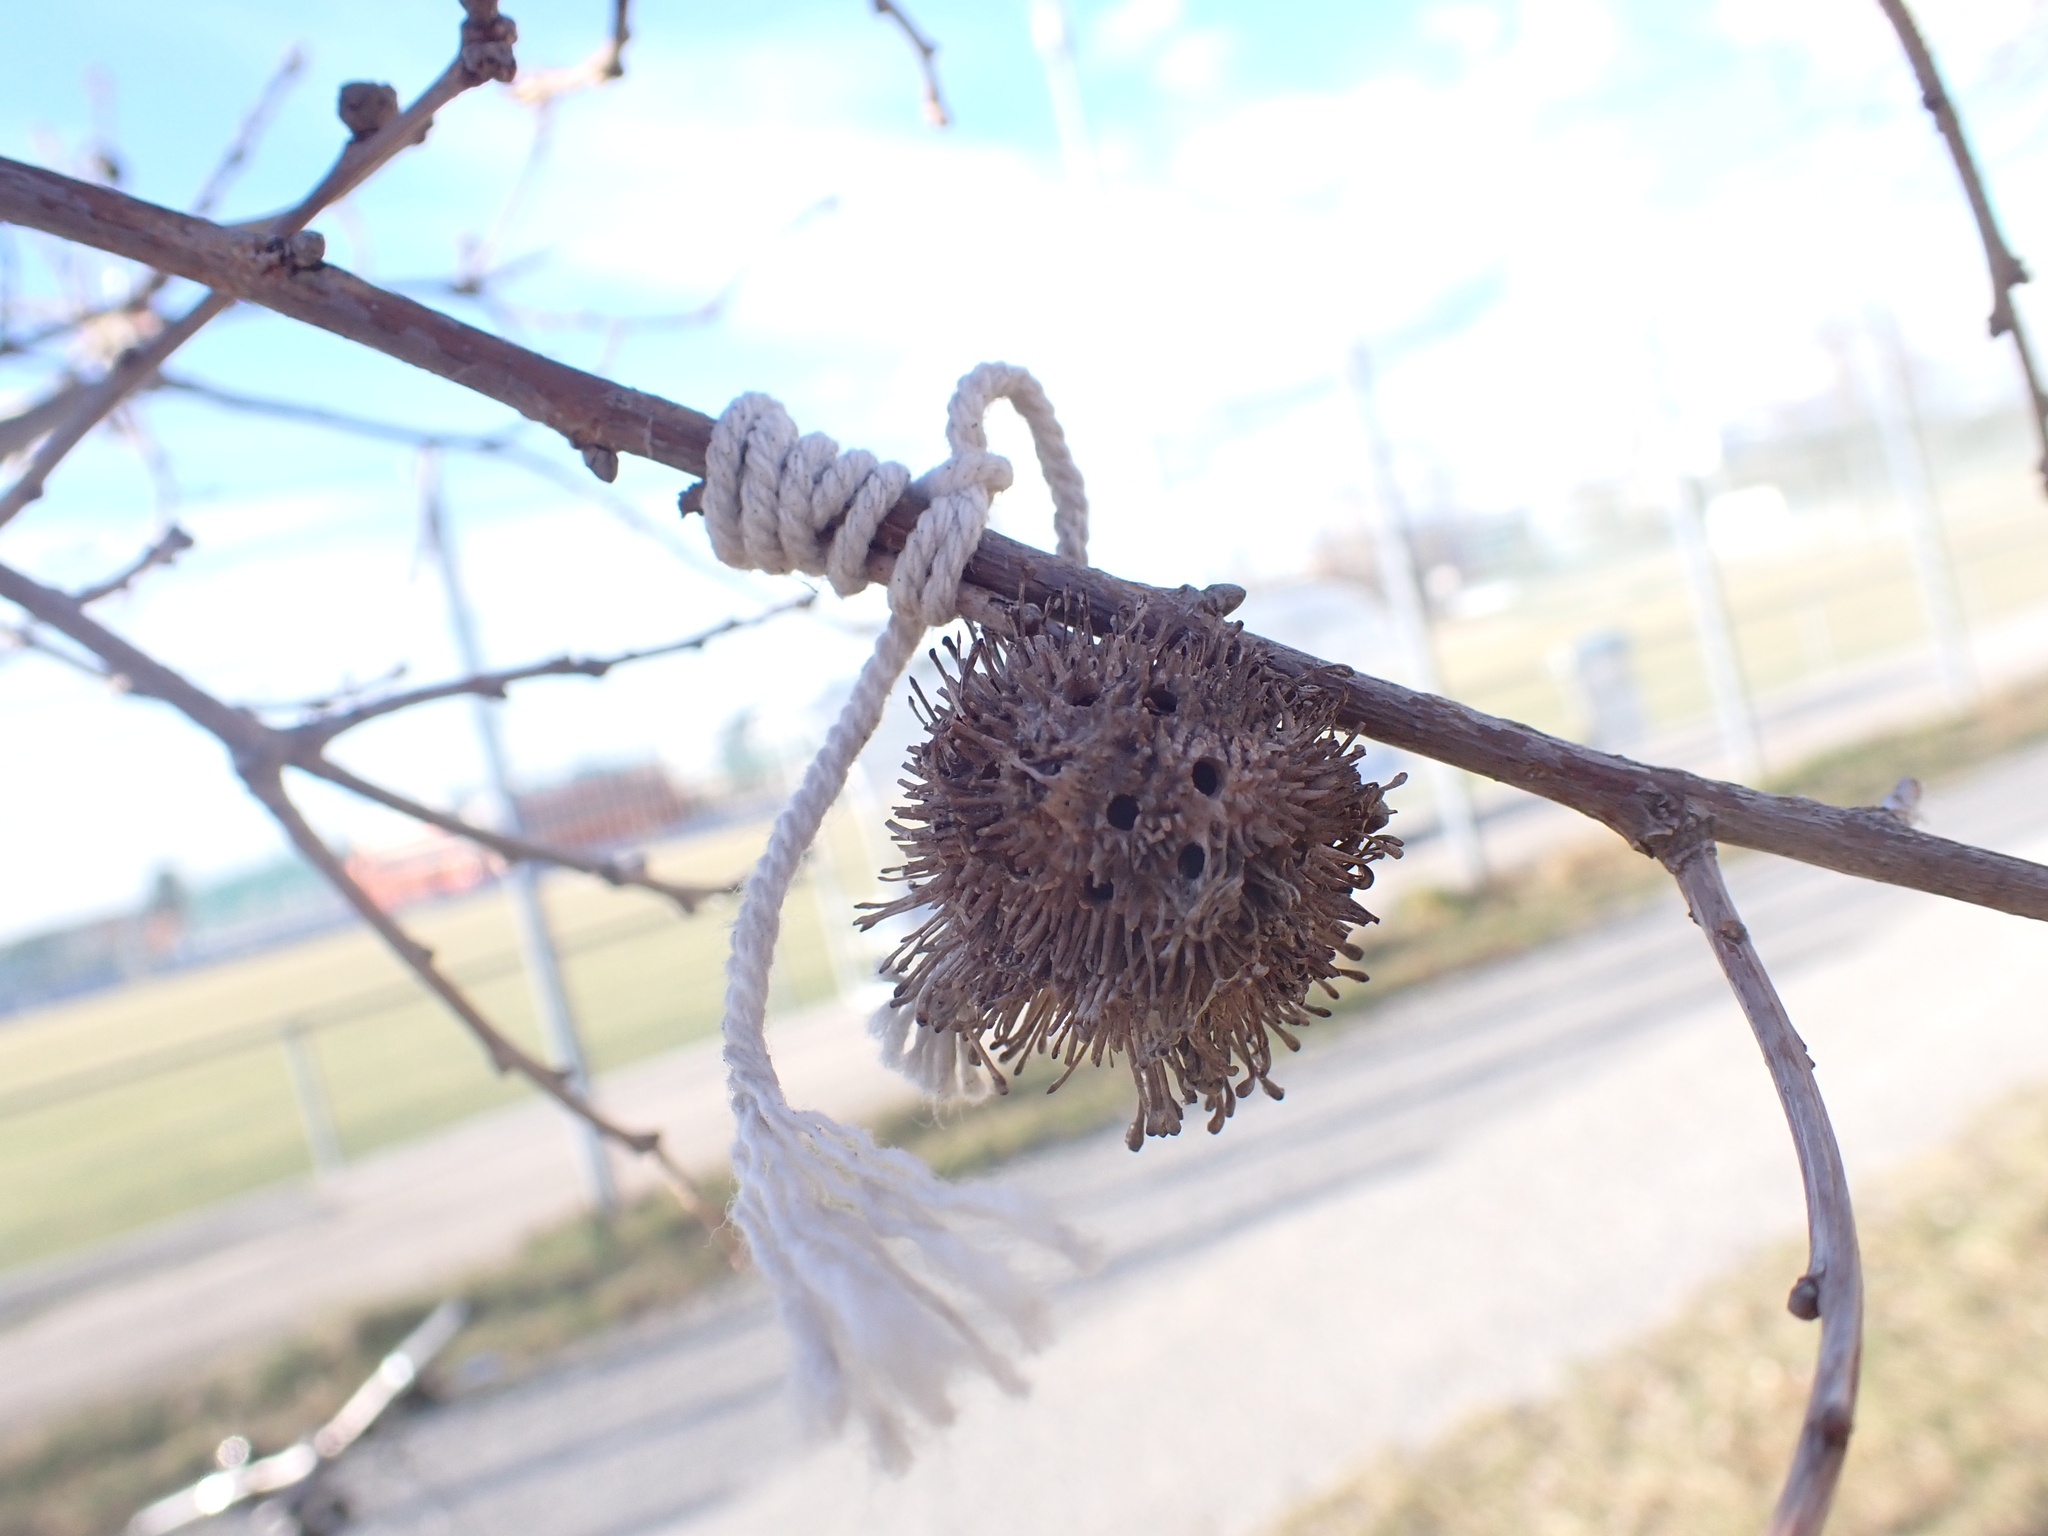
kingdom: Animalia
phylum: Arthropoda
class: Insecta
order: Hymenoptera
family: Cynipidae
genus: Andricus
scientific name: Andricus lucidus
